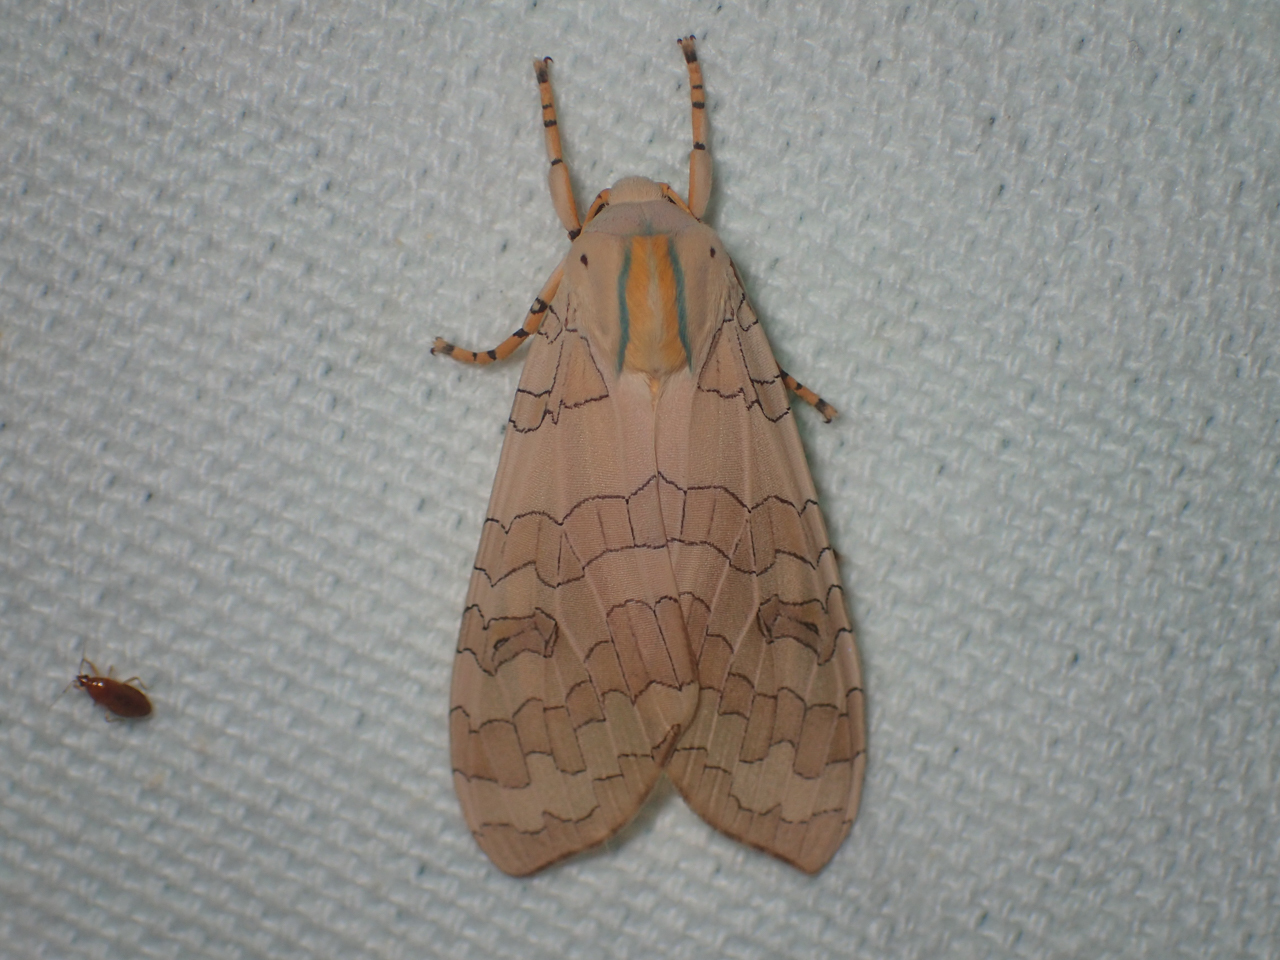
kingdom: Animalia
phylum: Arthropoda
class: Insecta
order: Lepidoptera
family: Erebidae
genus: Halysidota
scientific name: Halysidota
